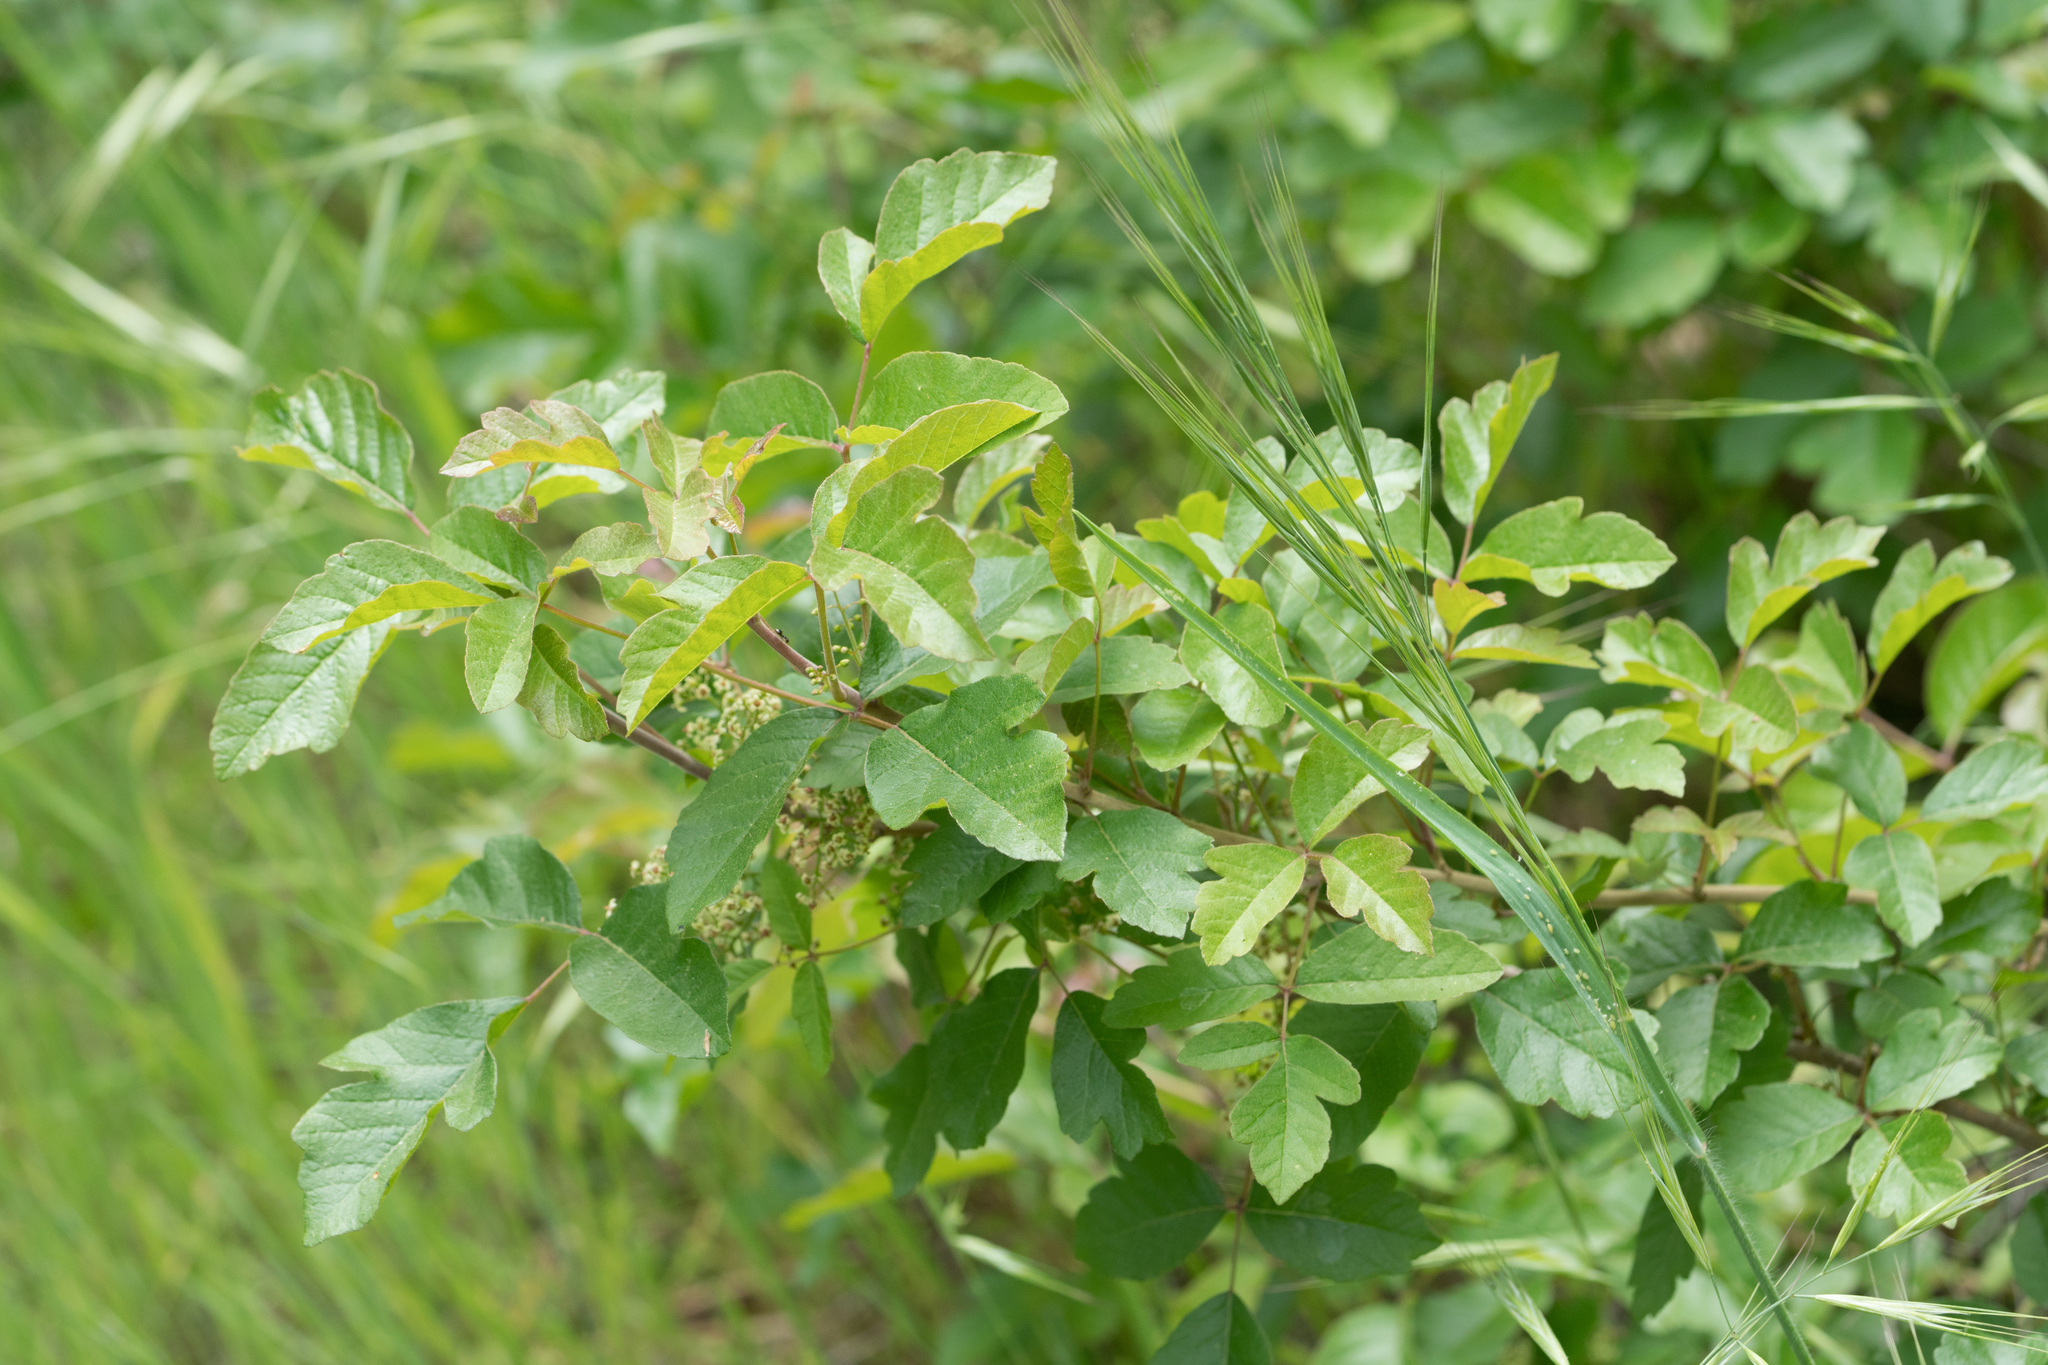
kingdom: Plantae
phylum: Tracheophyta
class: Magnoliopsida
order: Sapindales
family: Anacardiaceae
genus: Toxicodendron
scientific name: Toxicodendron diversilobum
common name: Pacific poison-oak
